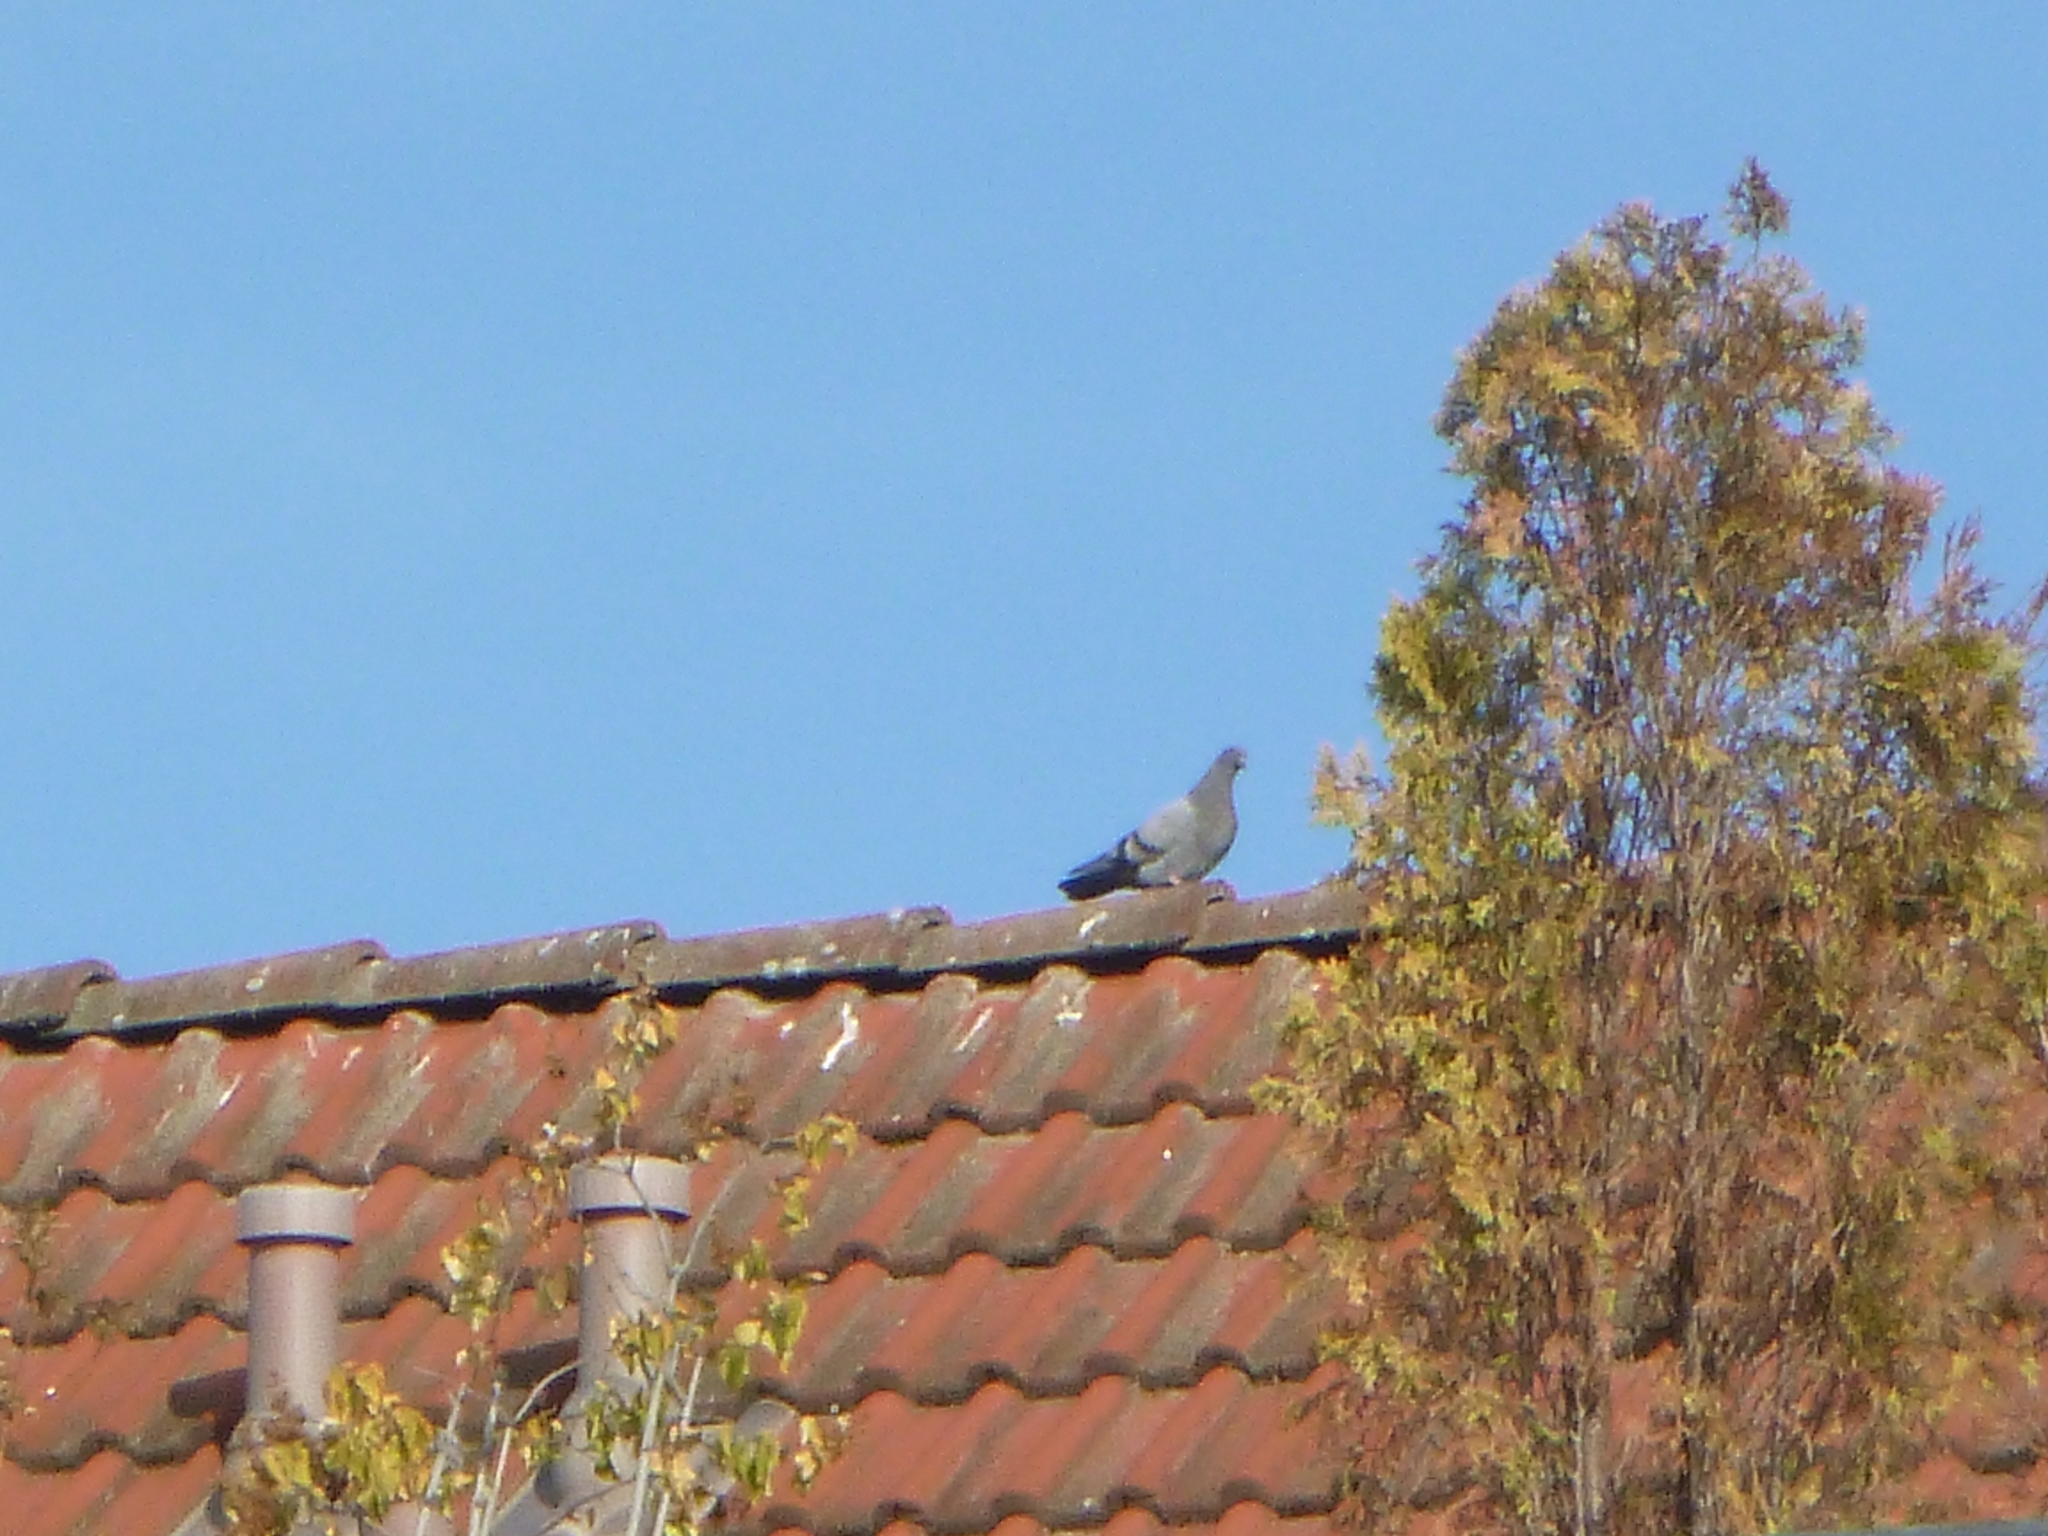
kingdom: Animalia
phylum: Chordata
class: Aves
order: Columbiformes
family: Columbidae
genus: Columba
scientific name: Columba livia
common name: Rock pigeon
